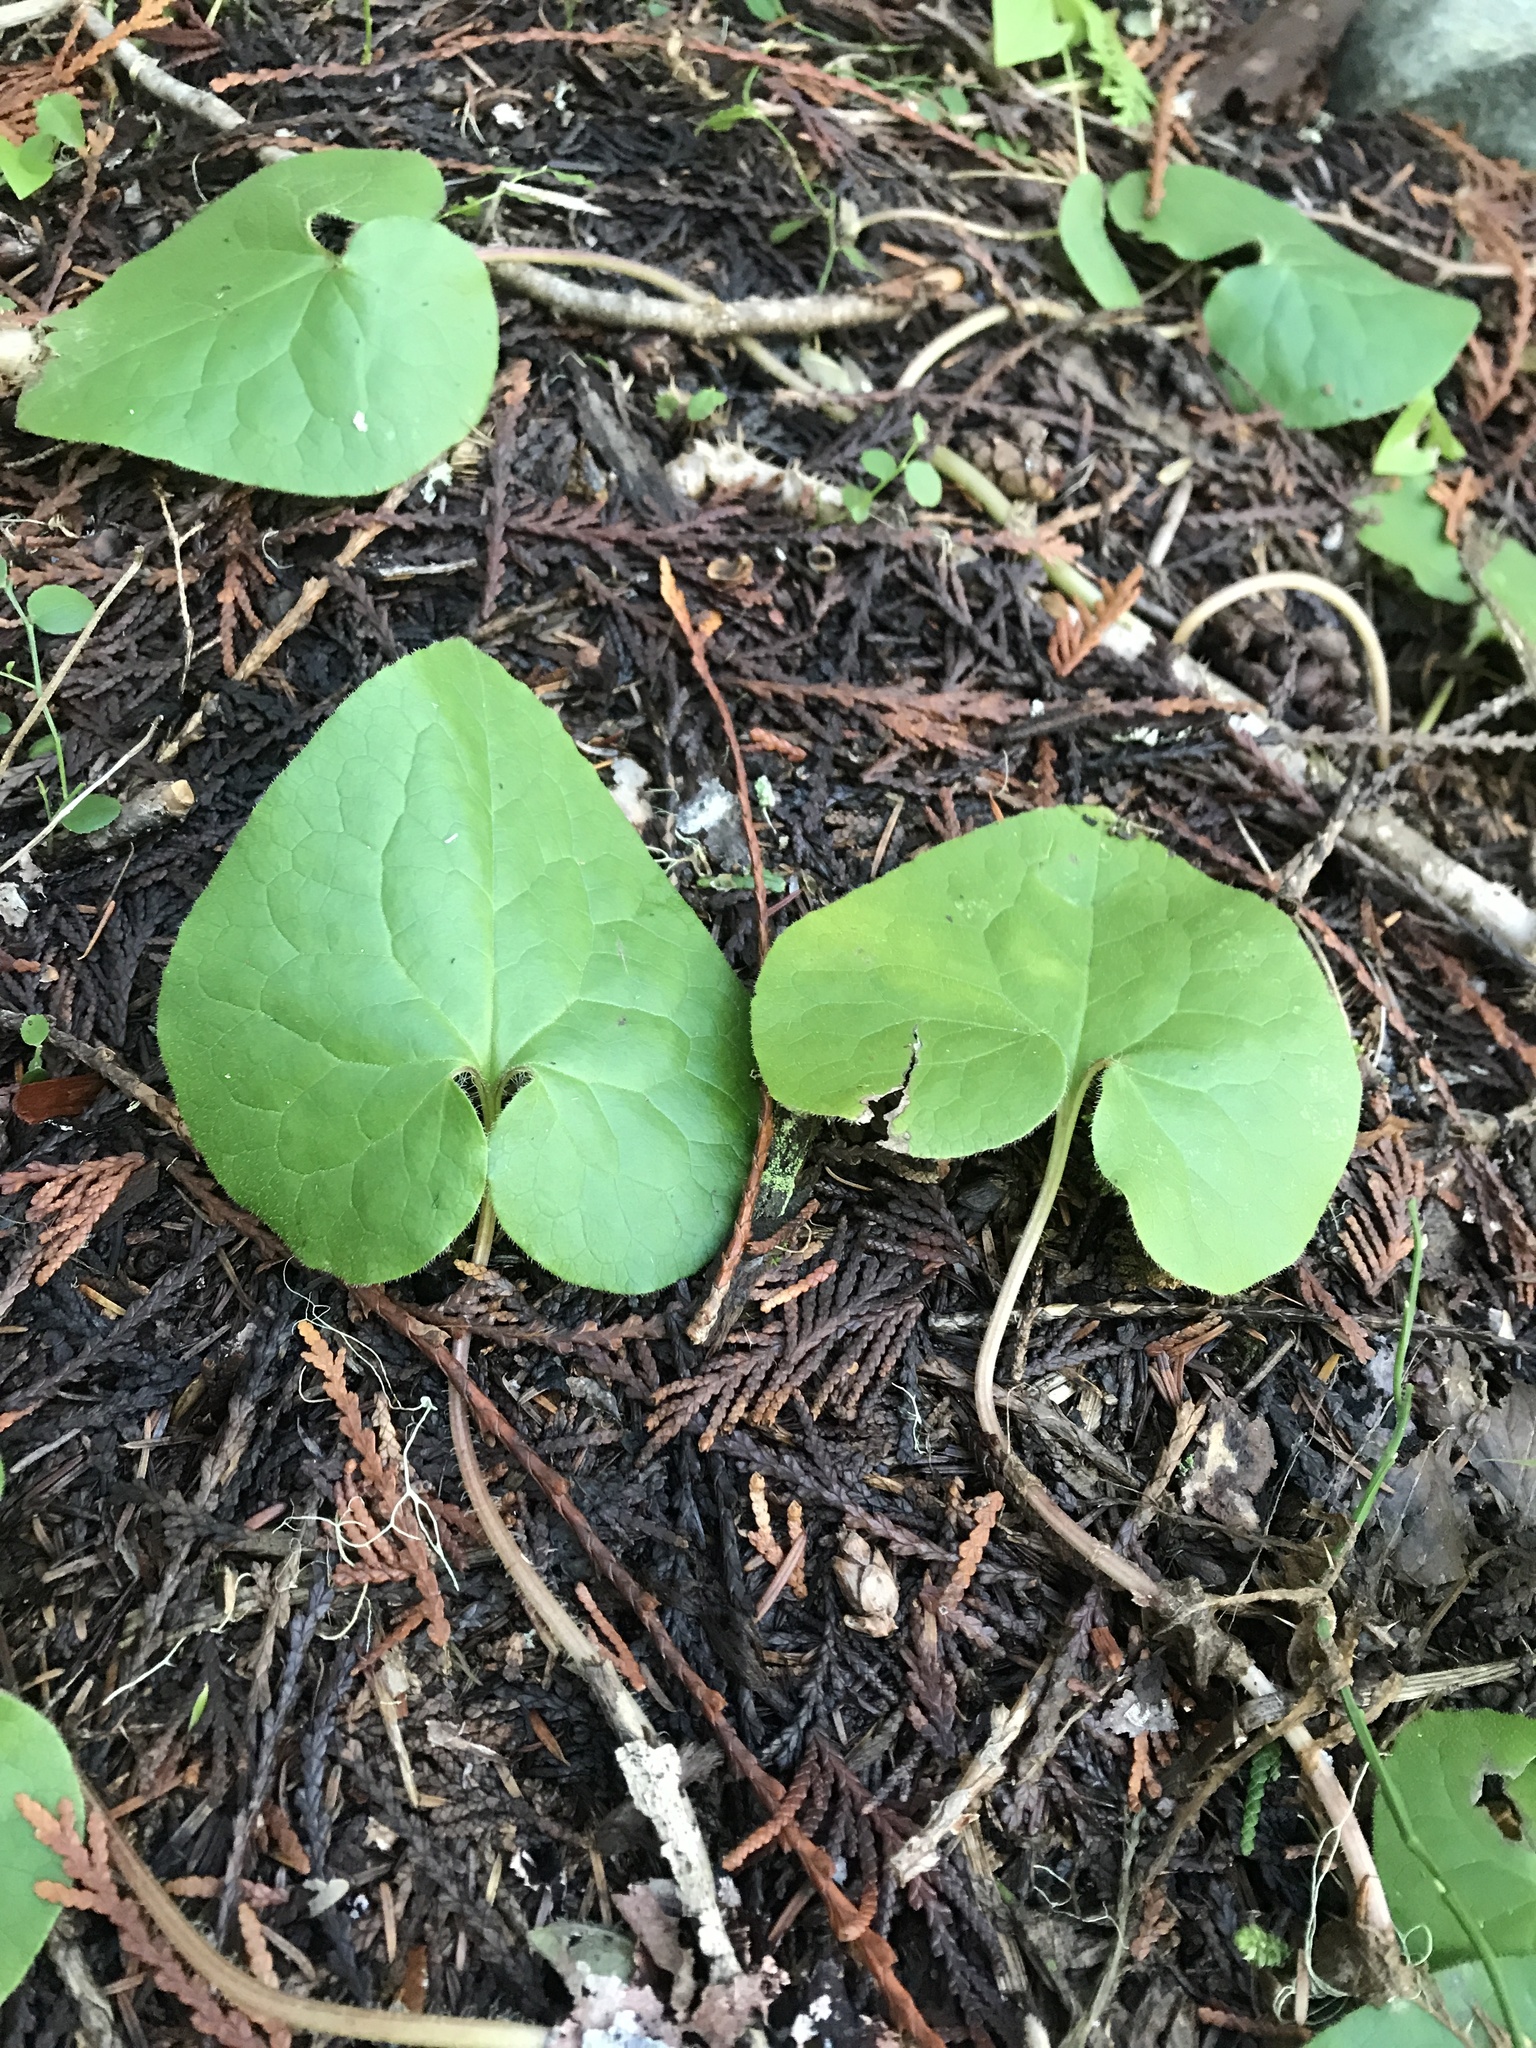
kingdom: Plantae
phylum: Tracheophyta
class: Magnoliopsida
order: Piperales
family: Aristolochiaceae
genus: Asarum
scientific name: Asarum caudatum
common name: Wild ginger
